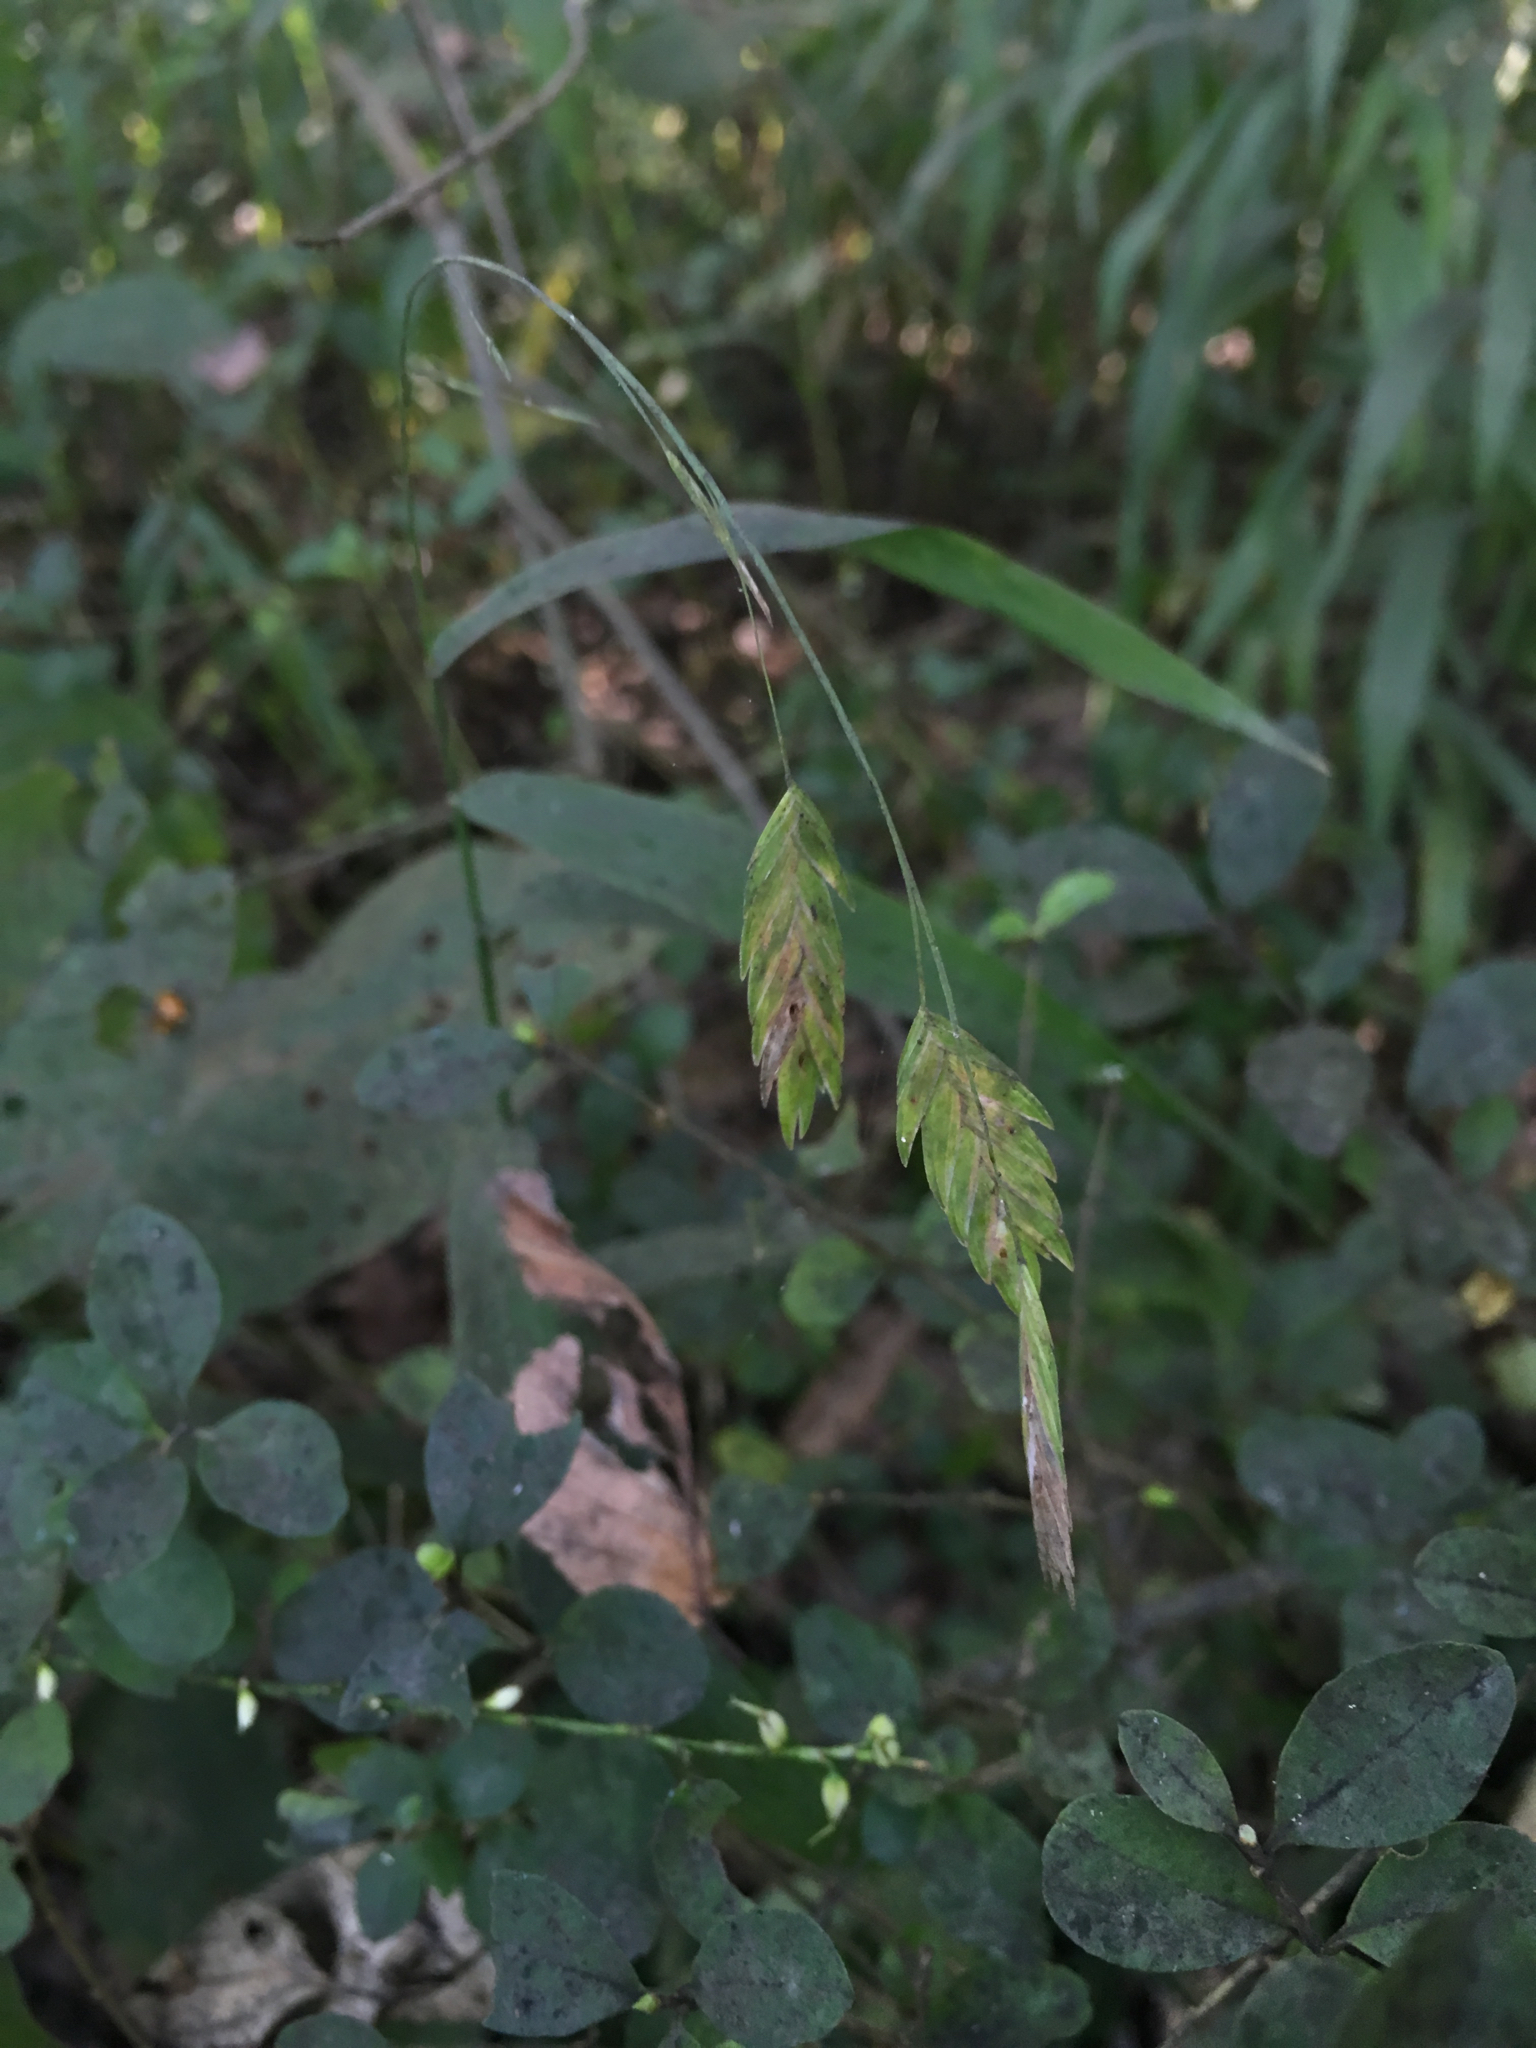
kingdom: Plantae
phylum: Tracheophyta
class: Liliopsida
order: Poales
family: Poaceae
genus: Chasmanthium
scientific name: Chasmanthium latifolium
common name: Broad-leaved chasmanthium
